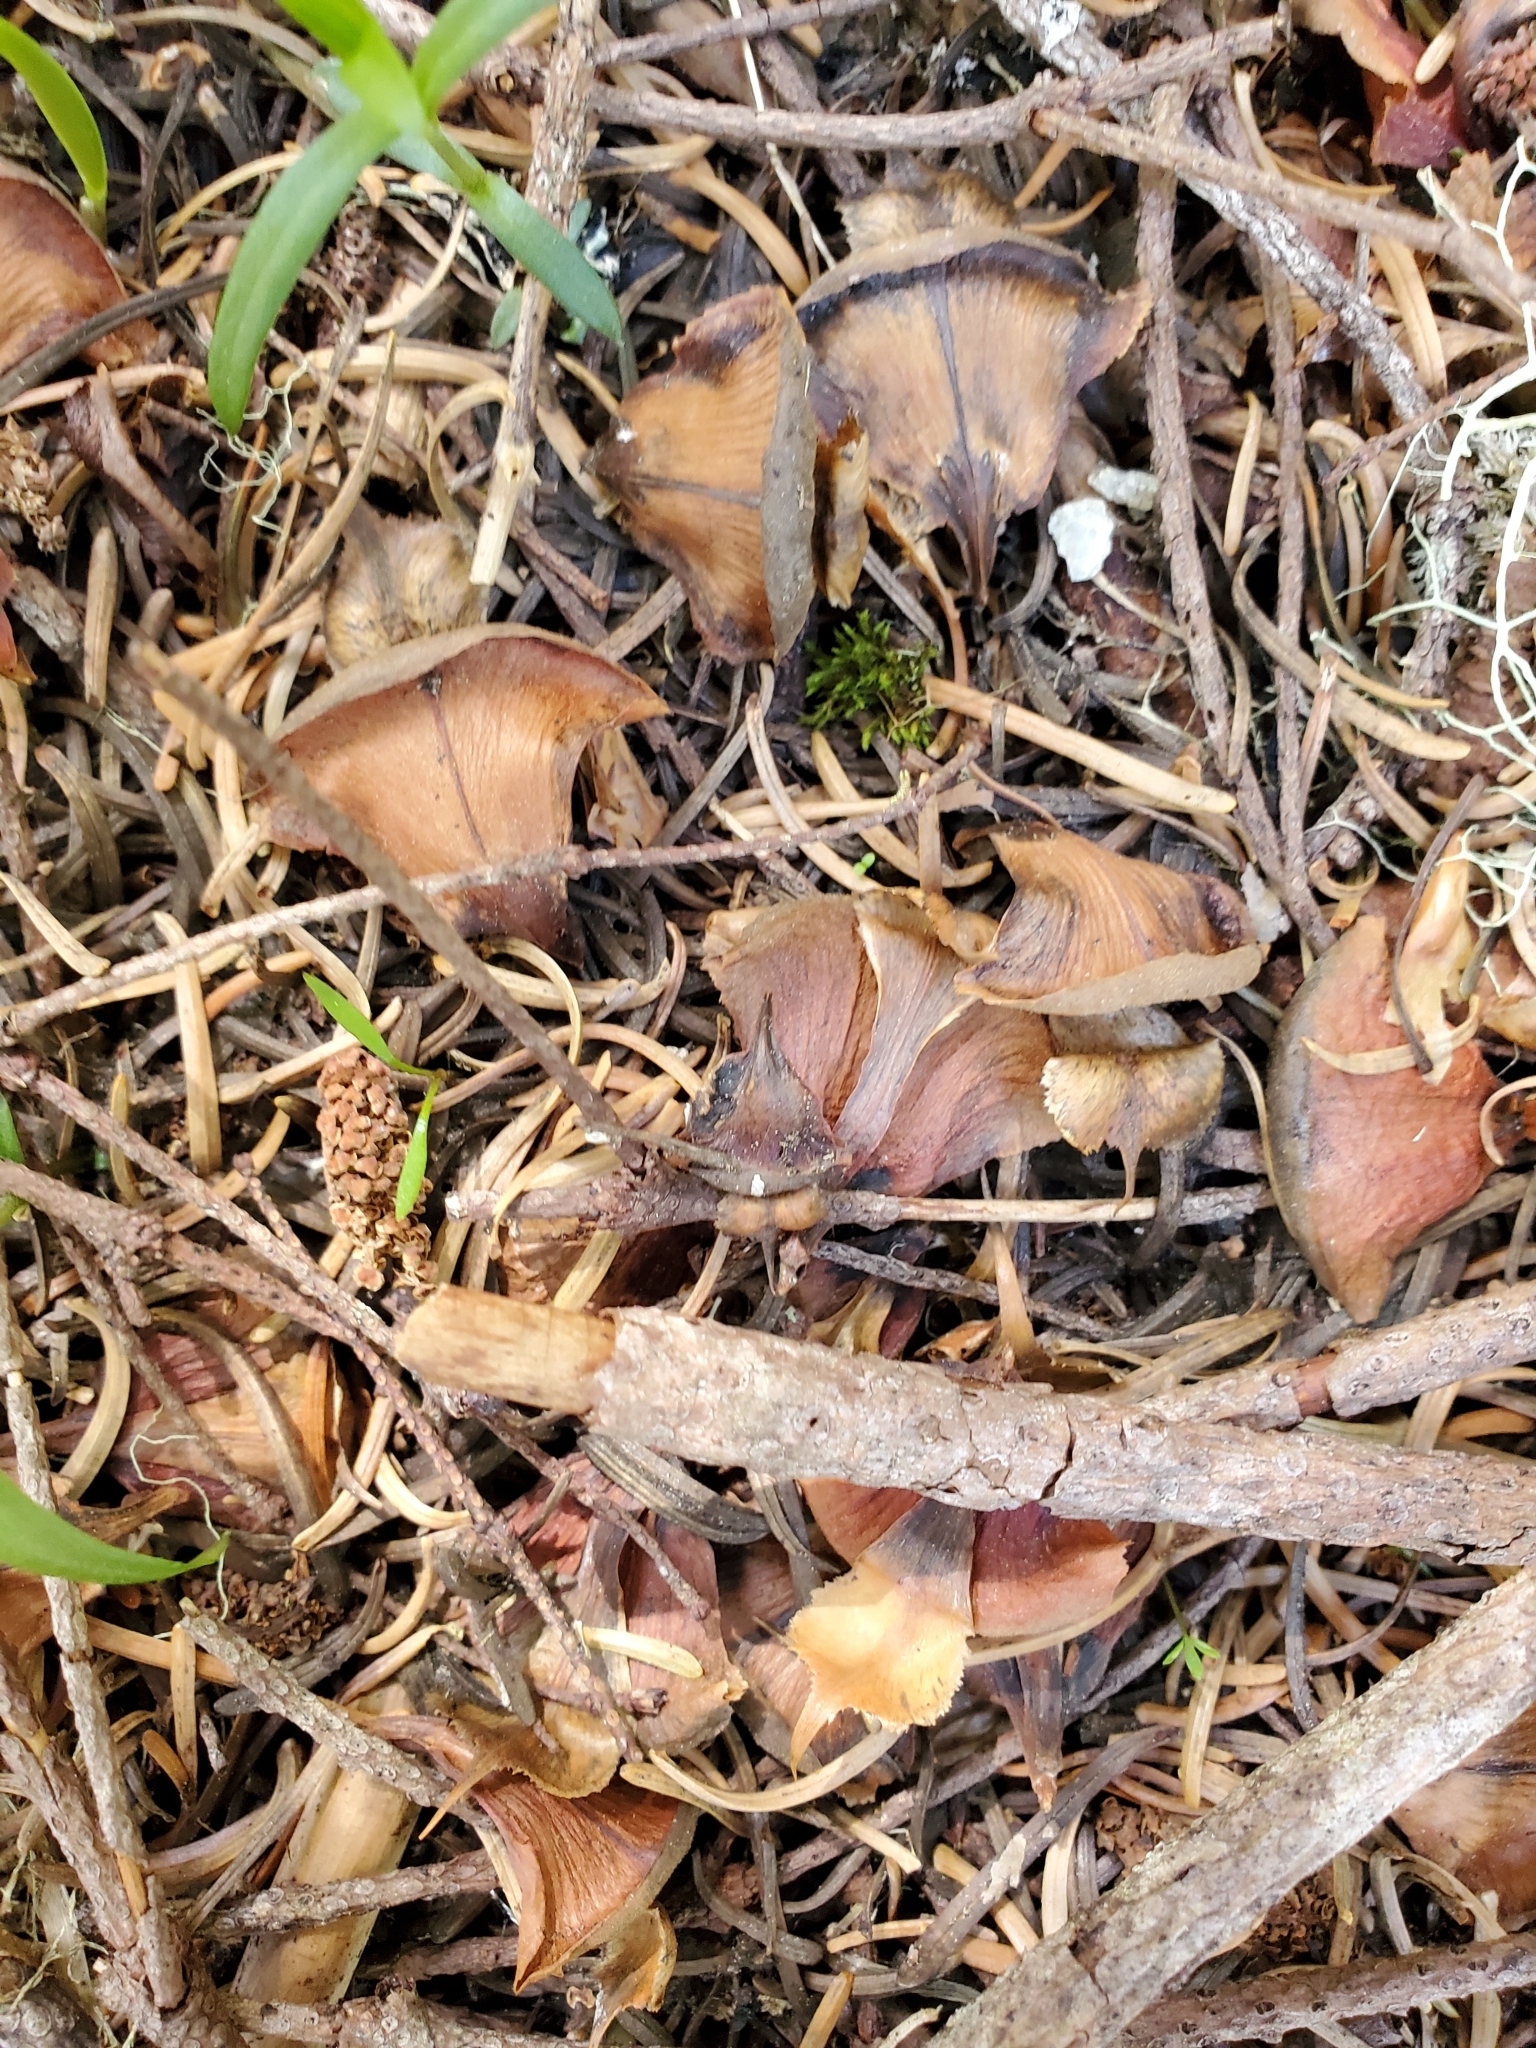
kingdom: Plantae
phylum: Tracheophyta
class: Pinopsida
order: Pinales
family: Pinaceae
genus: Abies
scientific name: Abies procera
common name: Noble fir
